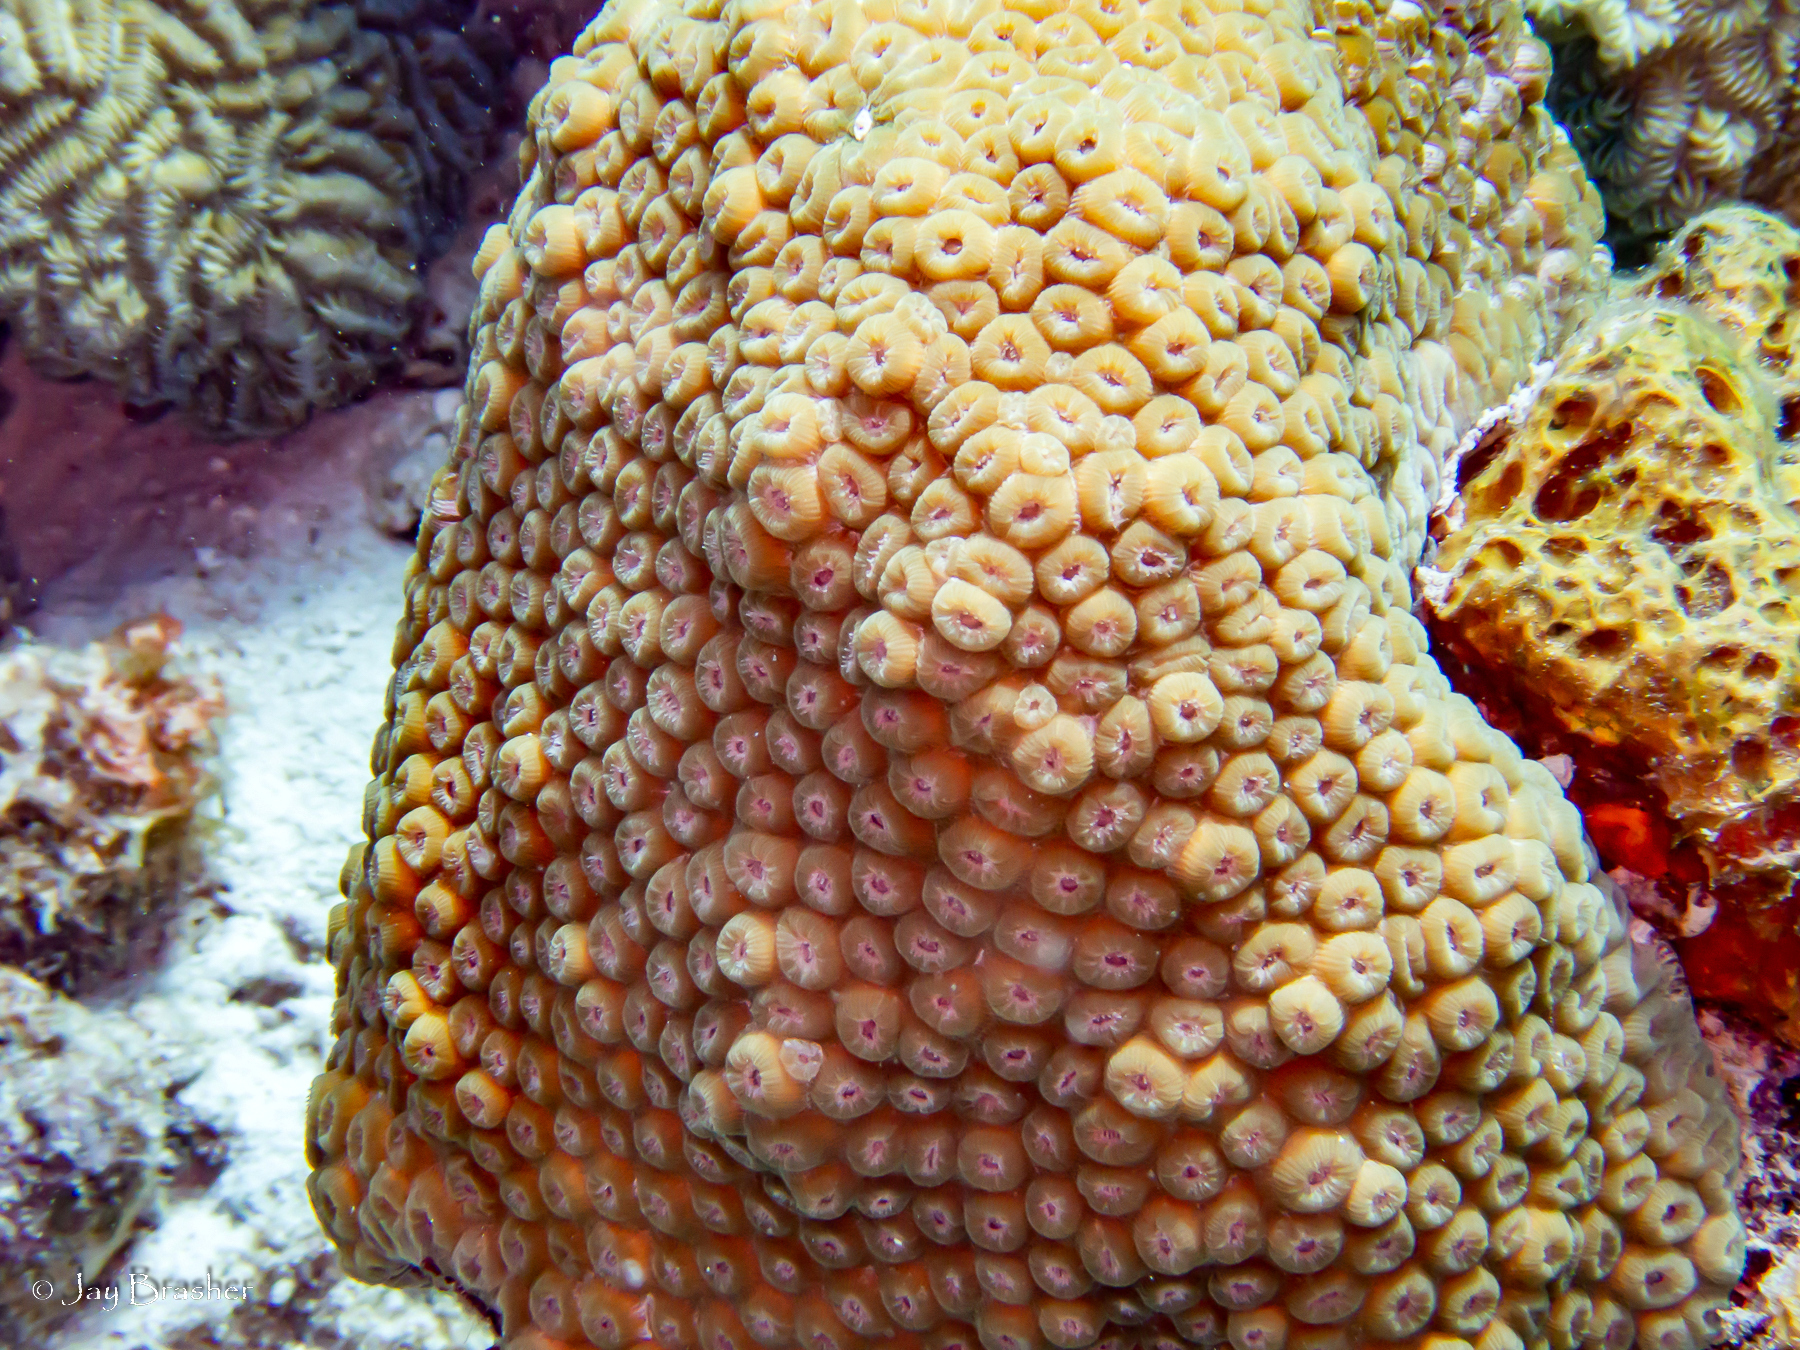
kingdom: Animalia
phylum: Cnidaria
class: Anthozoa
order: Scleractinia
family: Montastraeidae
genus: Montastraea
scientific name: Montastraea cavernosa
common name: Great star coral
